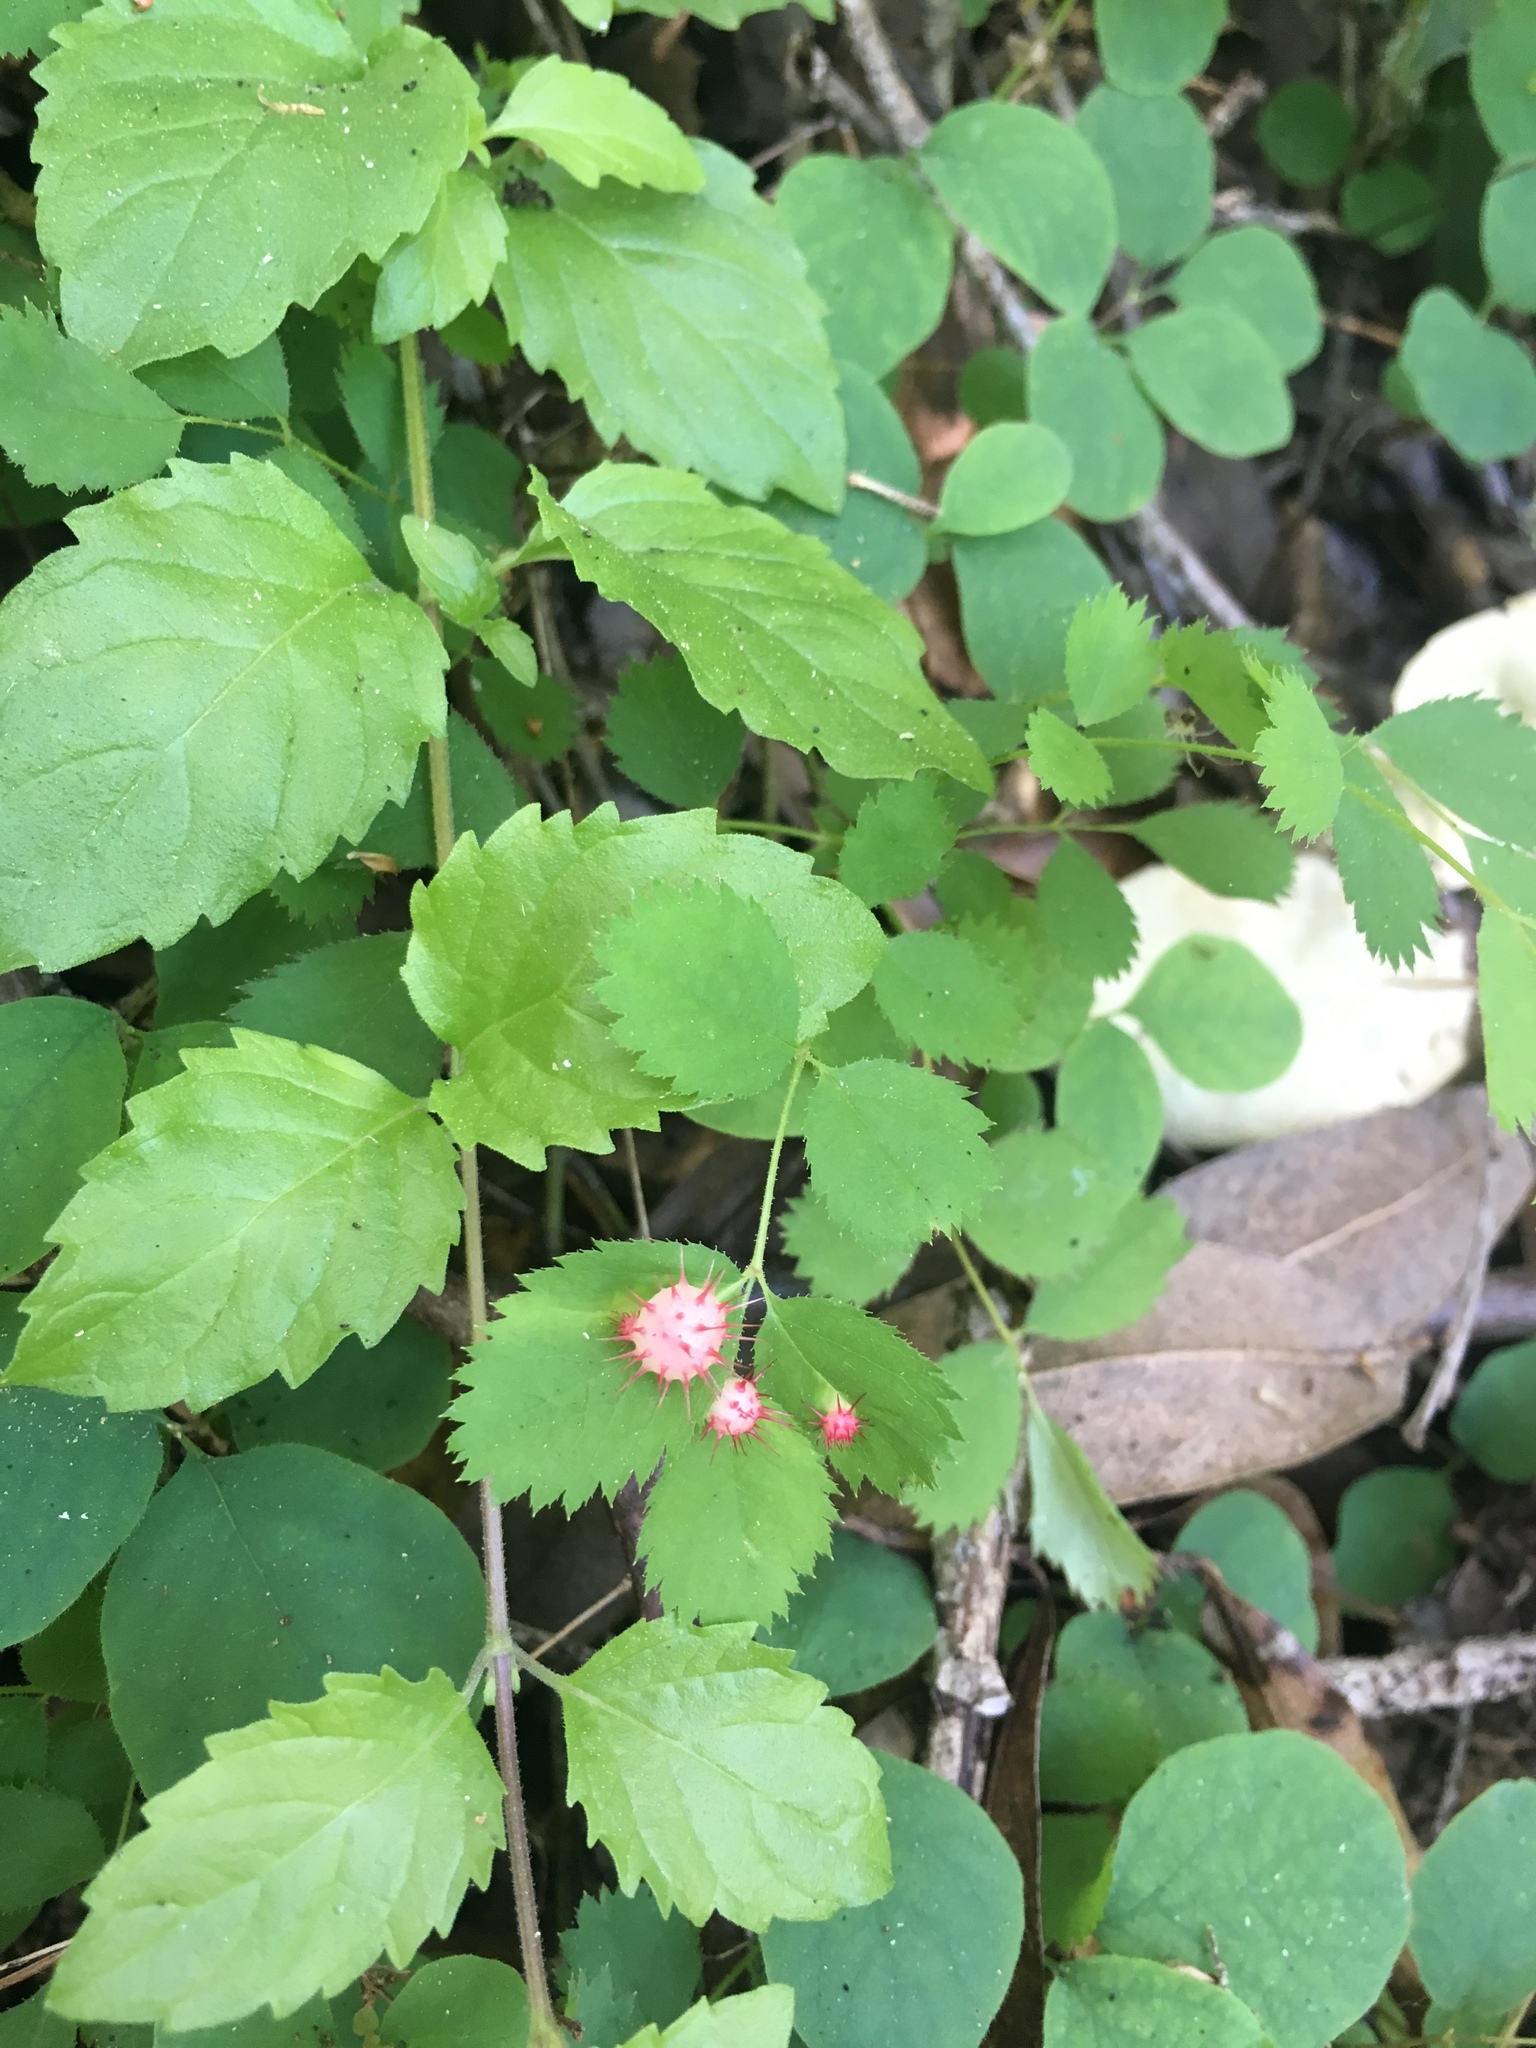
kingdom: Animalia
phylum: Arthropoda
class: Insecta
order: Hymenoptera
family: Cynipidae
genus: Diplolepis
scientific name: Diplolepis polita
